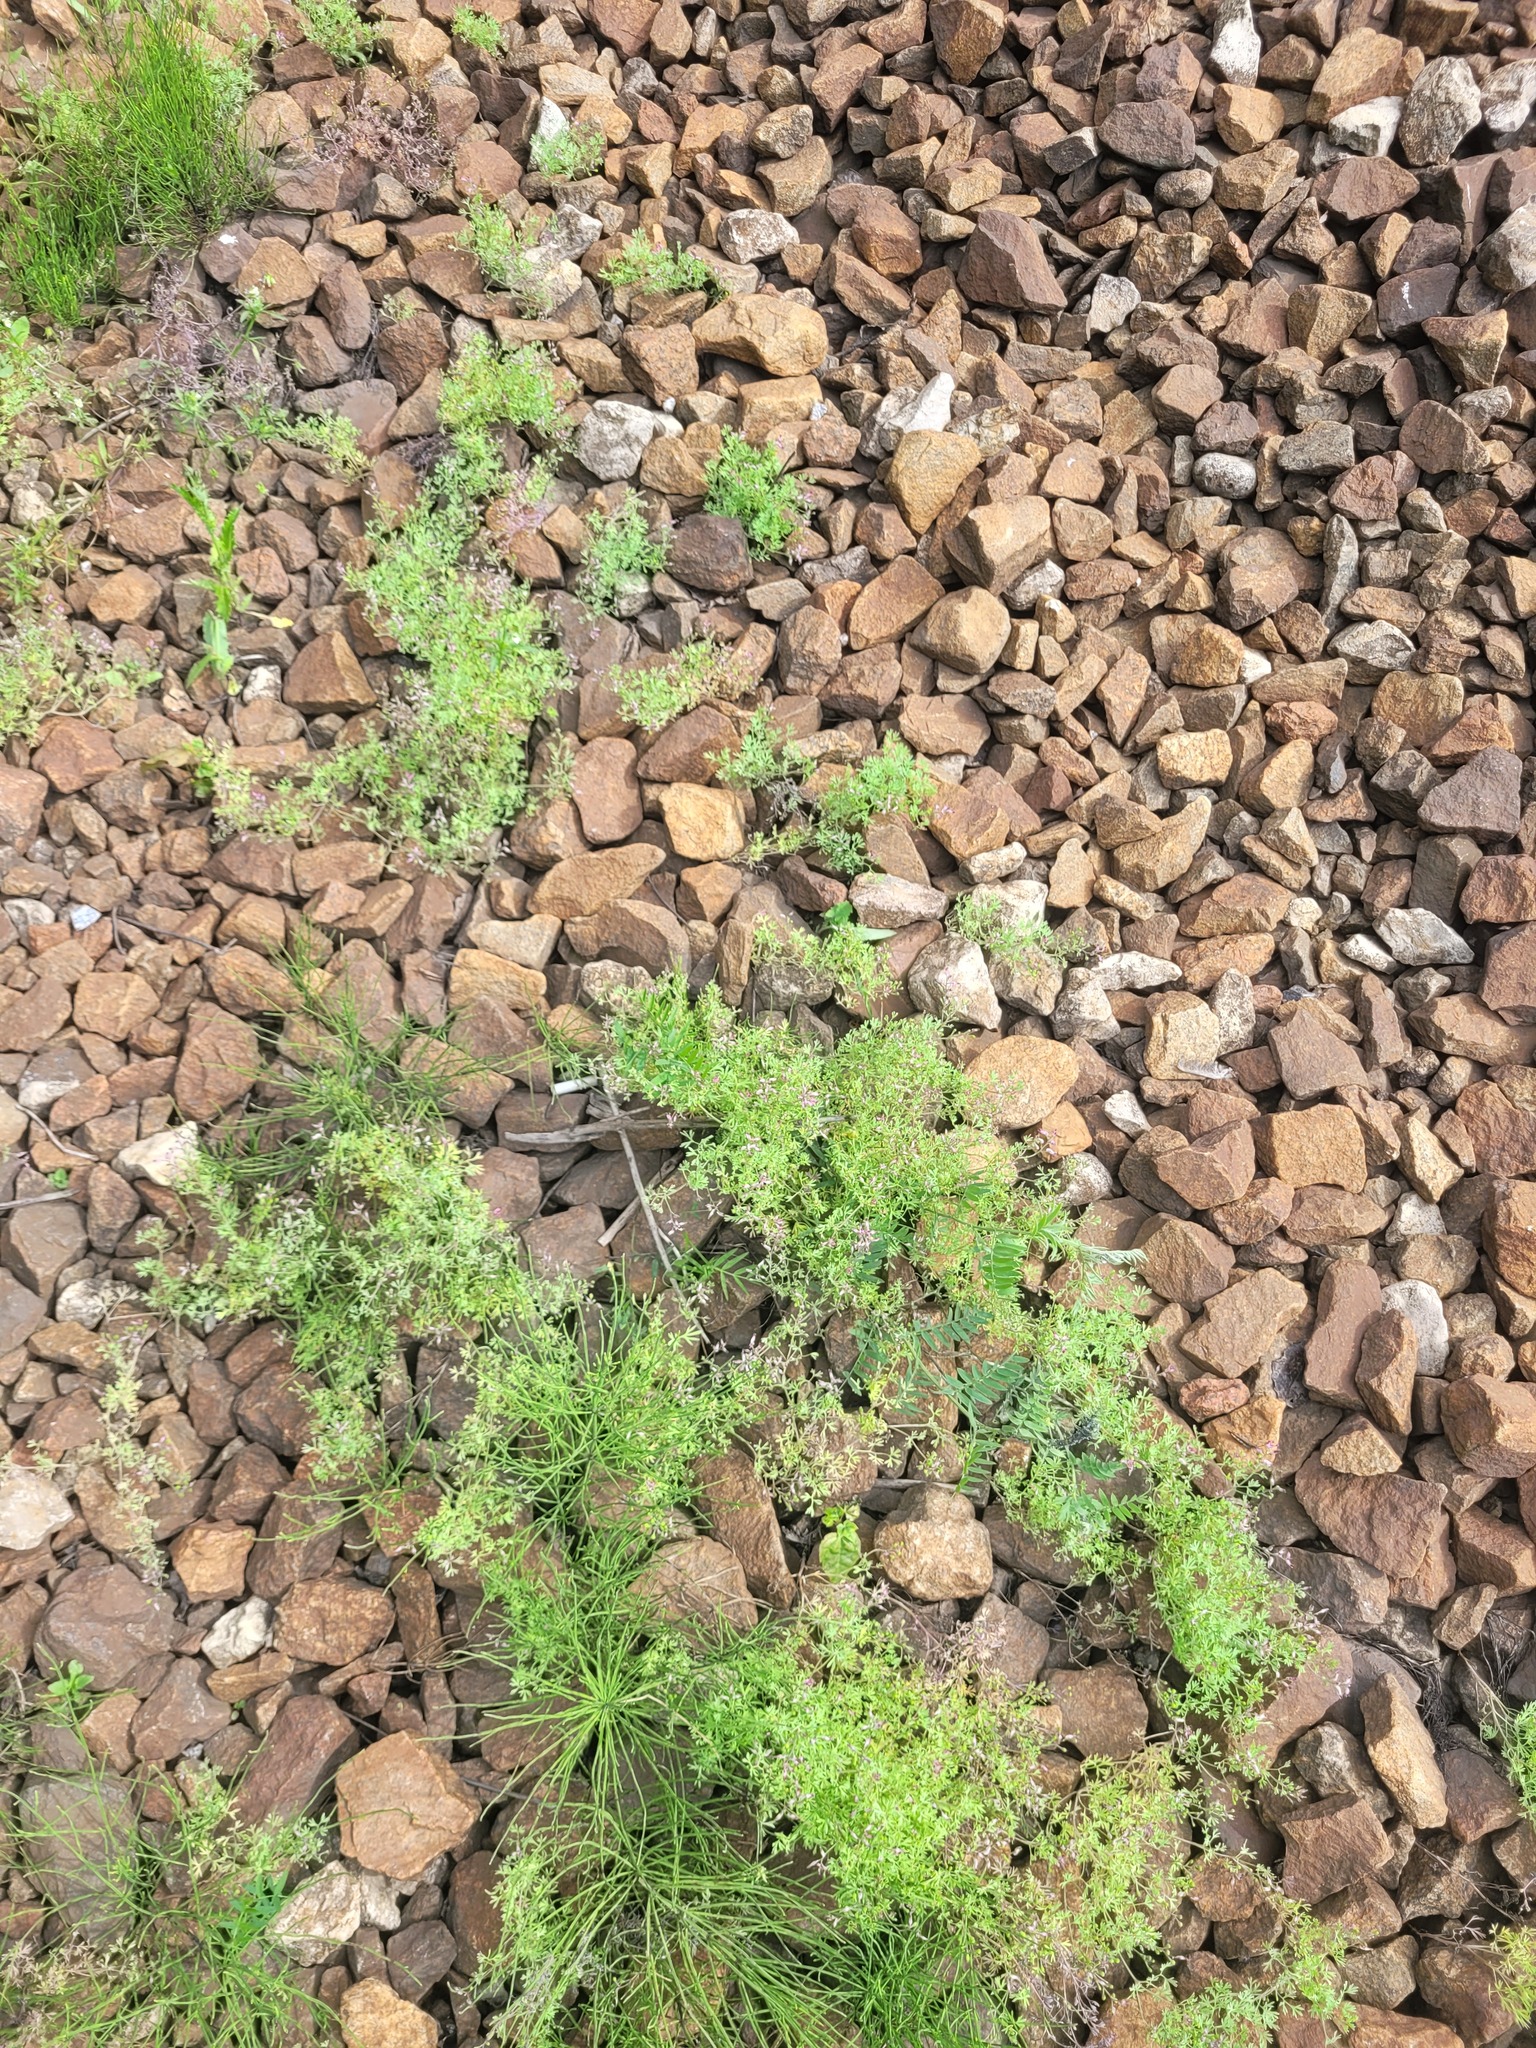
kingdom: Plantae
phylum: Tracheophyta
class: Magnoliopsida
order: Ranunculales
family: Papaveraceae
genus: Fumaria
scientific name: Fumaria schleicheri
